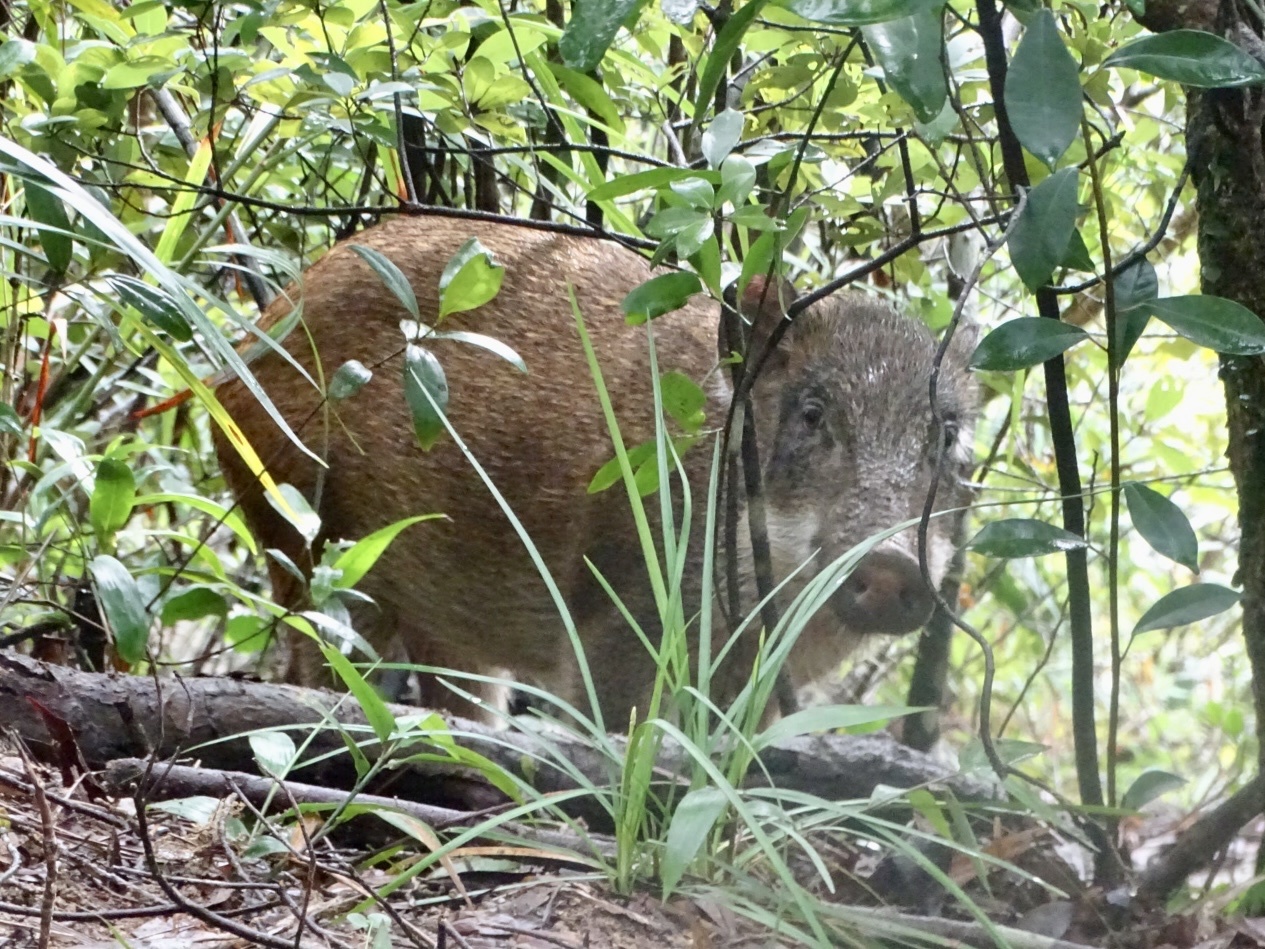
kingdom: Animalia
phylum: Chordata
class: Mammalia
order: Artiodactyla
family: Suidae
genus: Sus
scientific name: Sus scrofa
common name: Wild boar
